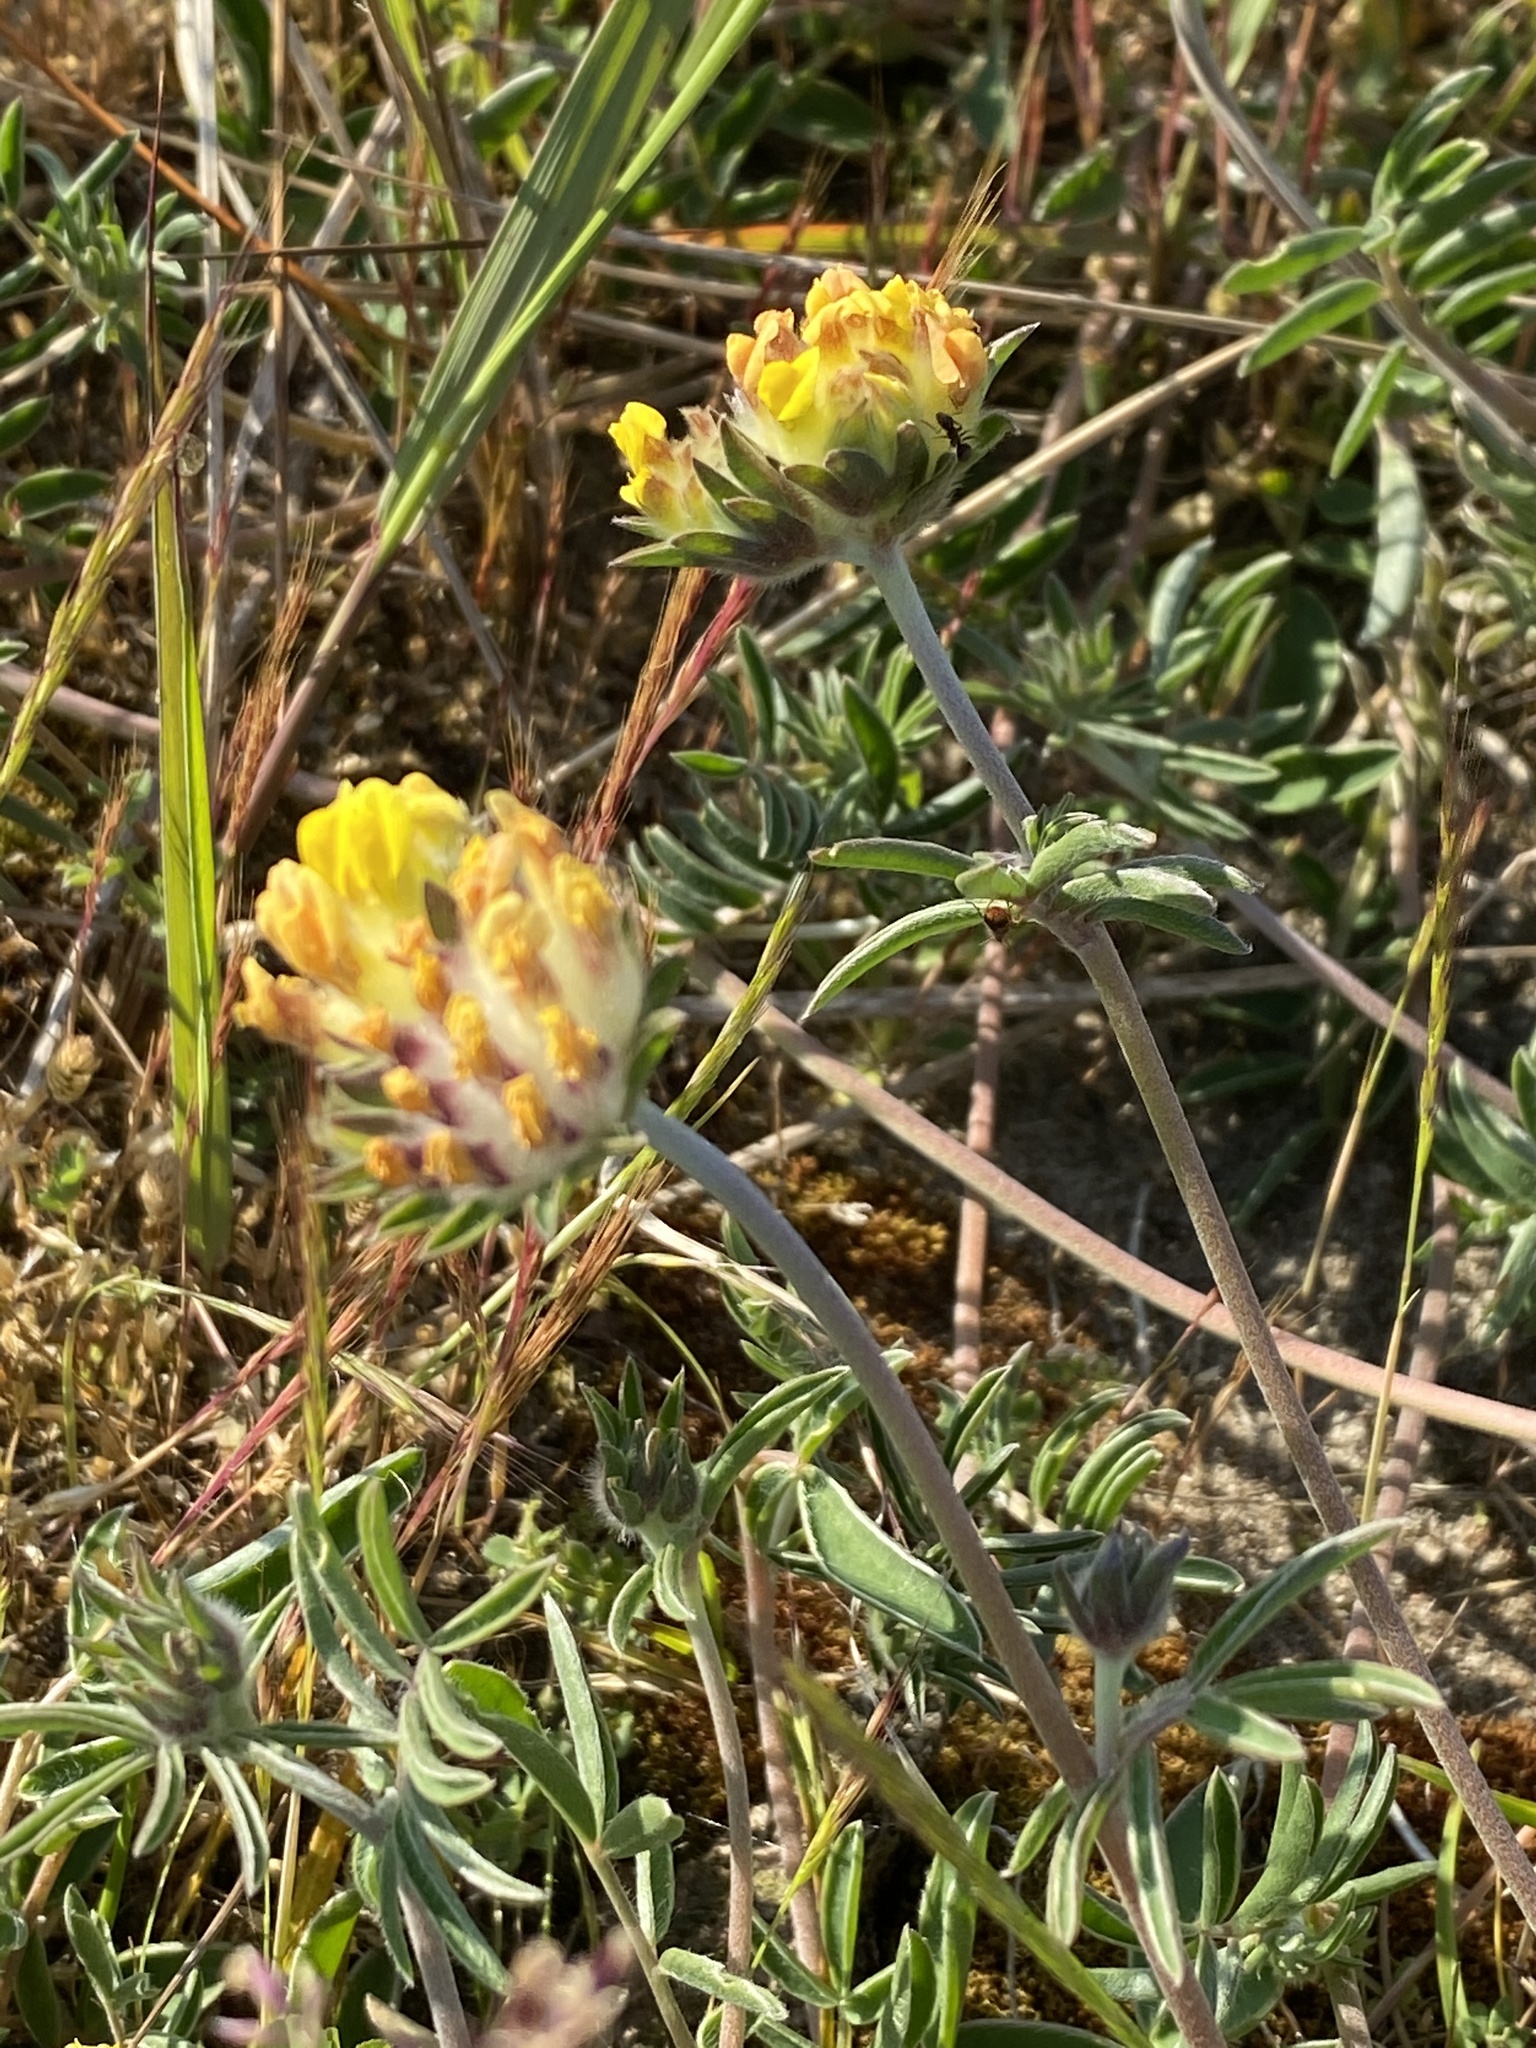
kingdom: Plantae
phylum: Tracheophyta
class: Magnoliopsida
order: Fabales
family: Fabaceae
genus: Anthyllis
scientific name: Anthyllis vulneraria
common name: Kidney vetch
